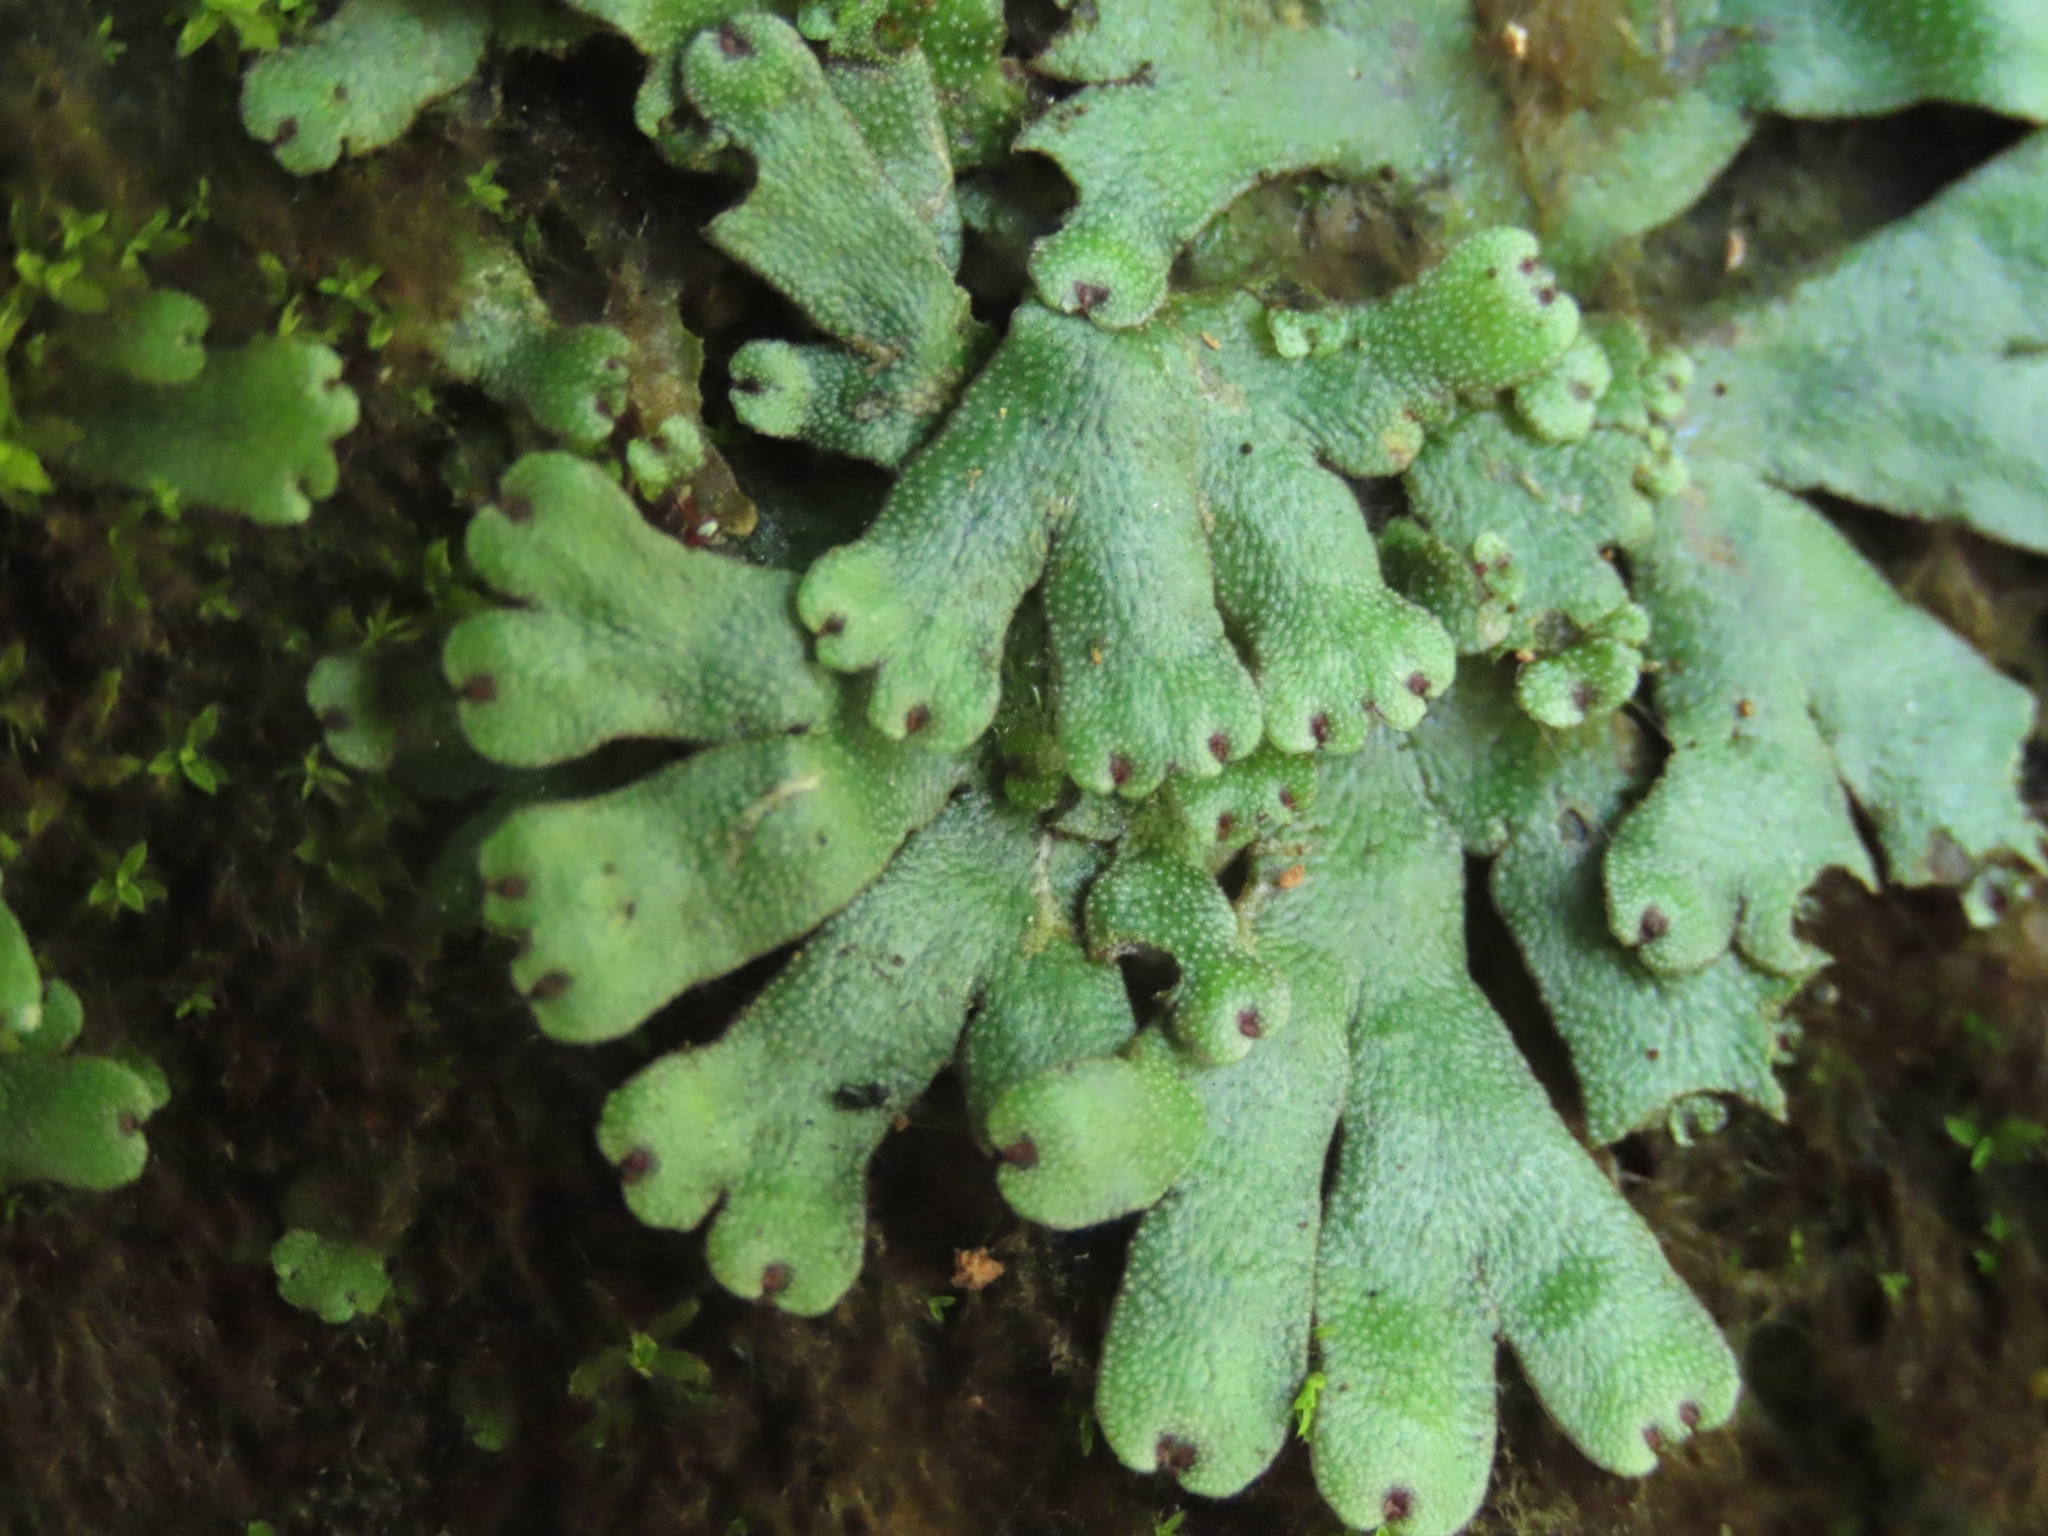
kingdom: Plantae
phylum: Marchantiophyta
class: Marchantiopsida
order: Marchantiales
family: Marchantiaceae
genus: Marchantia
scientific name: Marchantia emarginata
